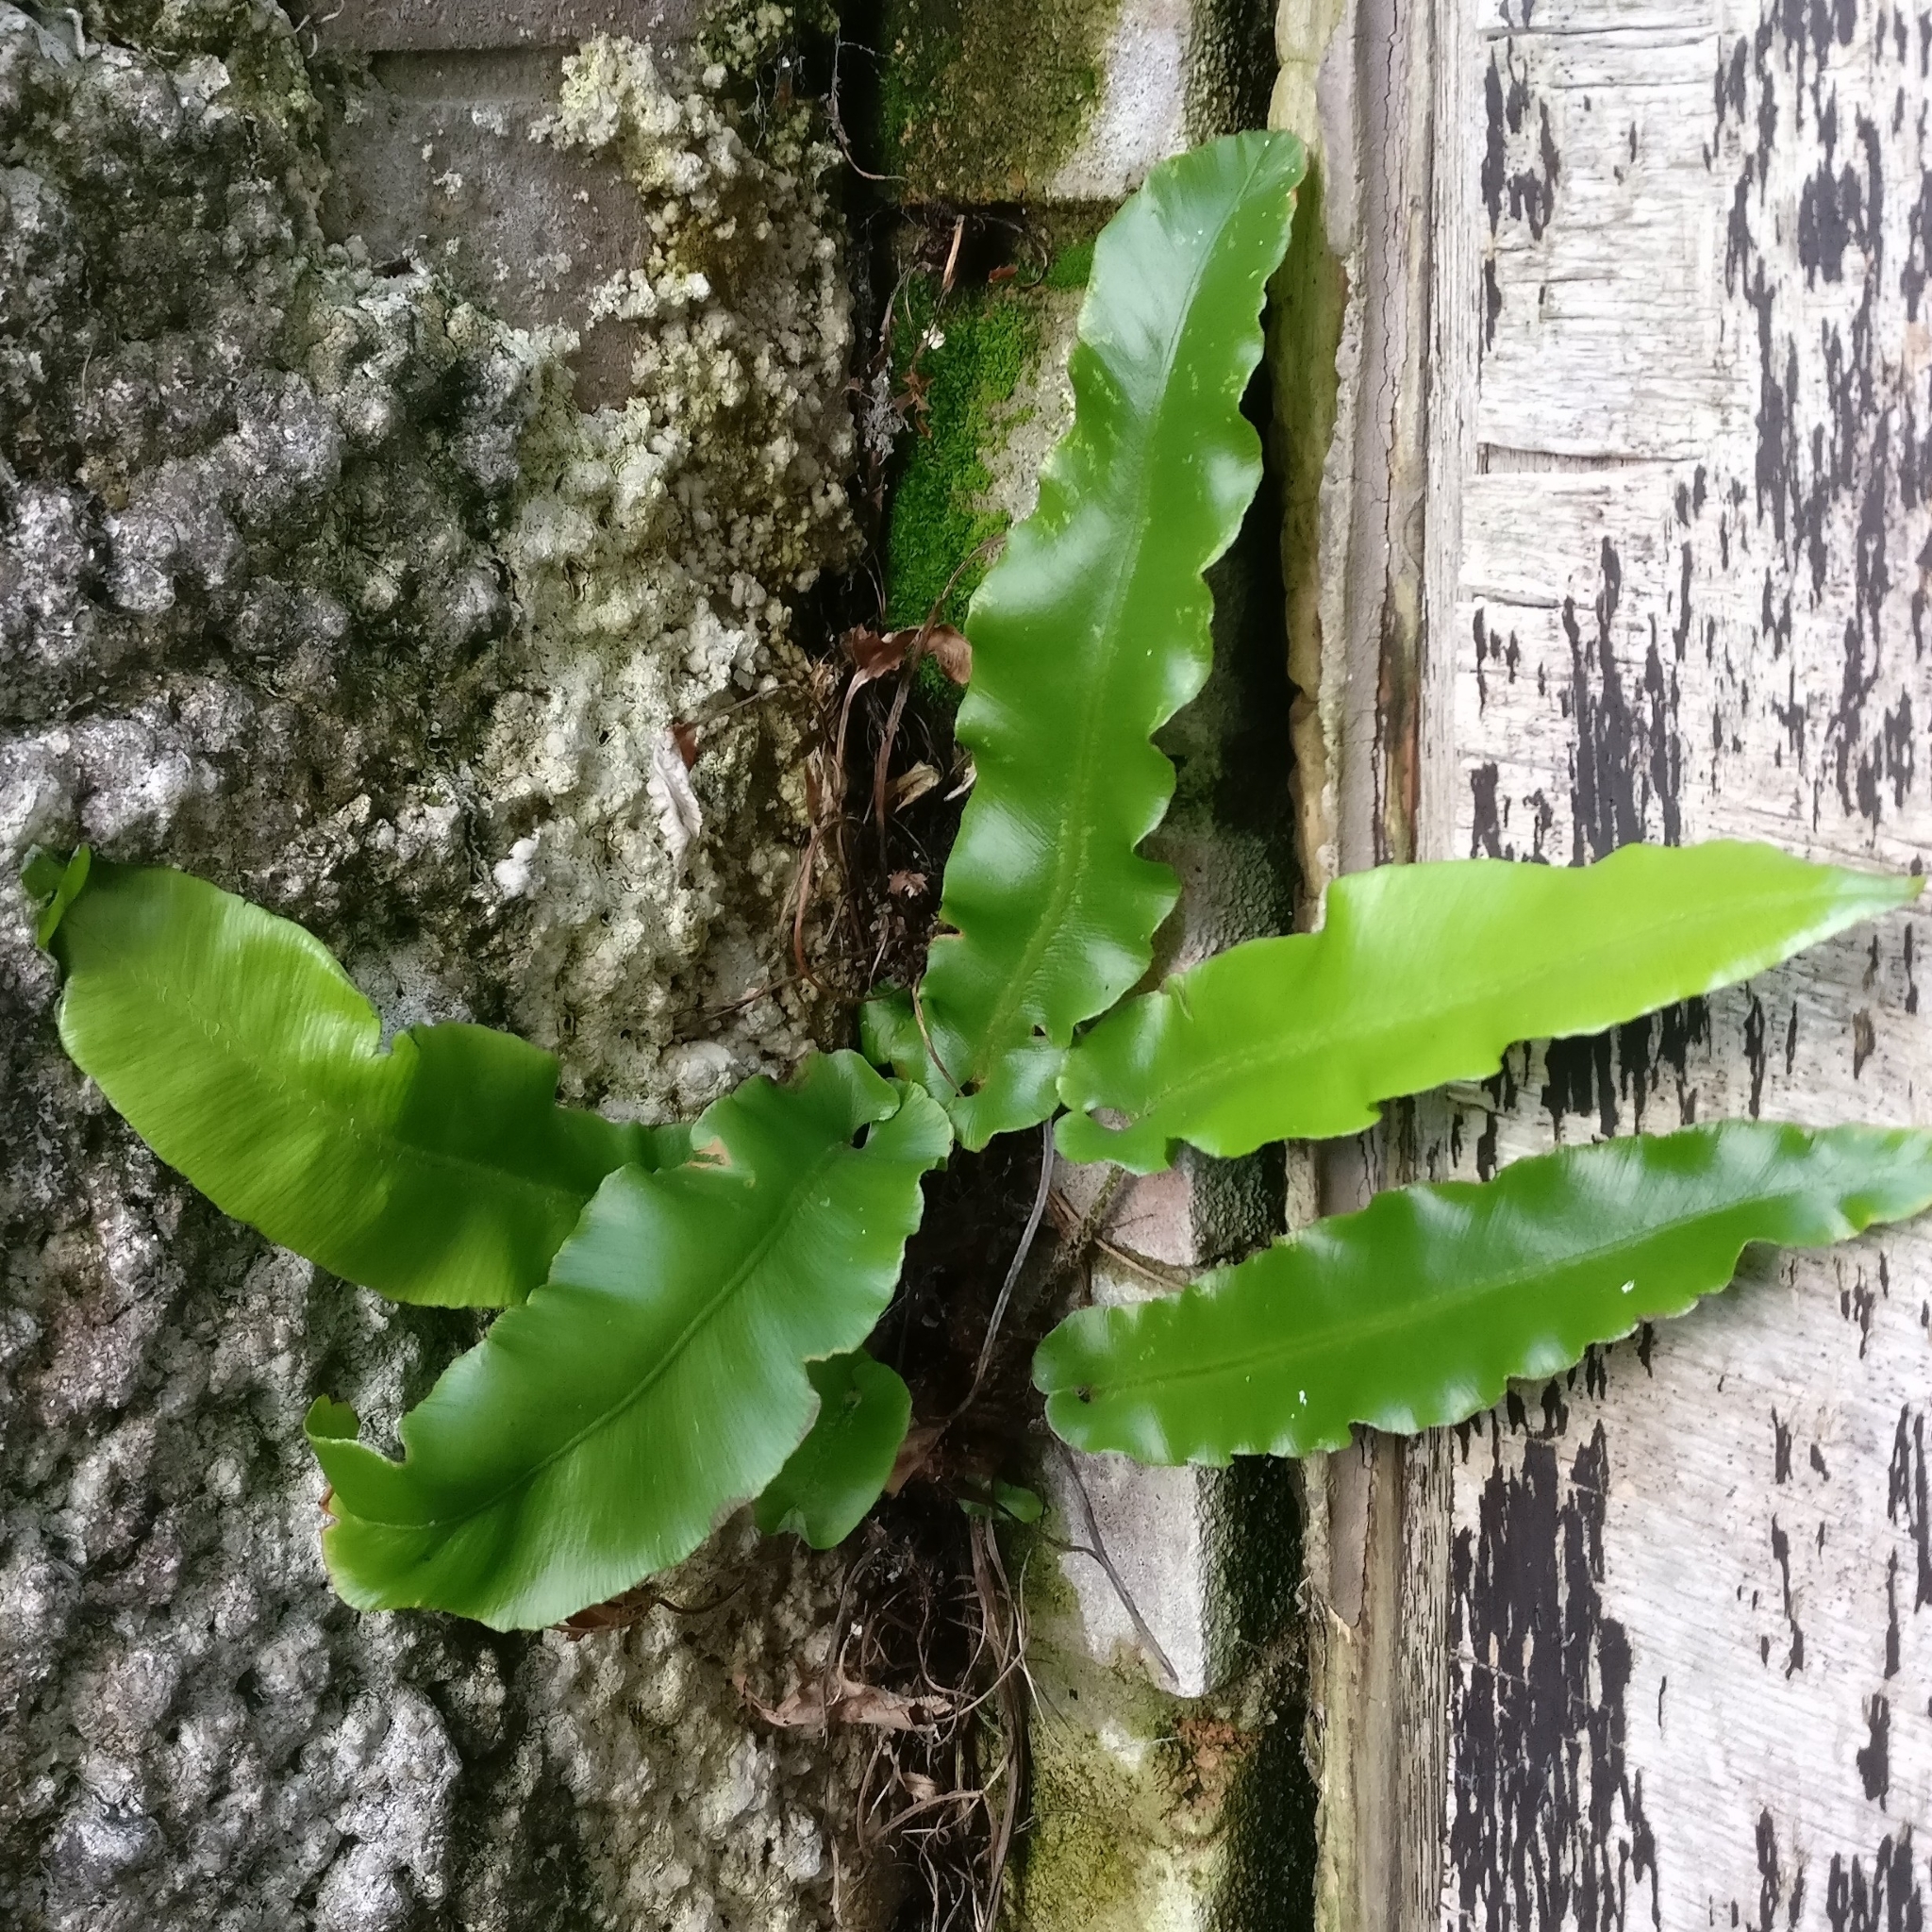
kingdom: Plantae
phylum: Tracheophyta
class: Polypodiopsida
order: Polypodiales
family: Aspleniaceae
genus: Asplenium
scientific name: Asplenium scolopendrium
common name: Hart's-tongue fern
